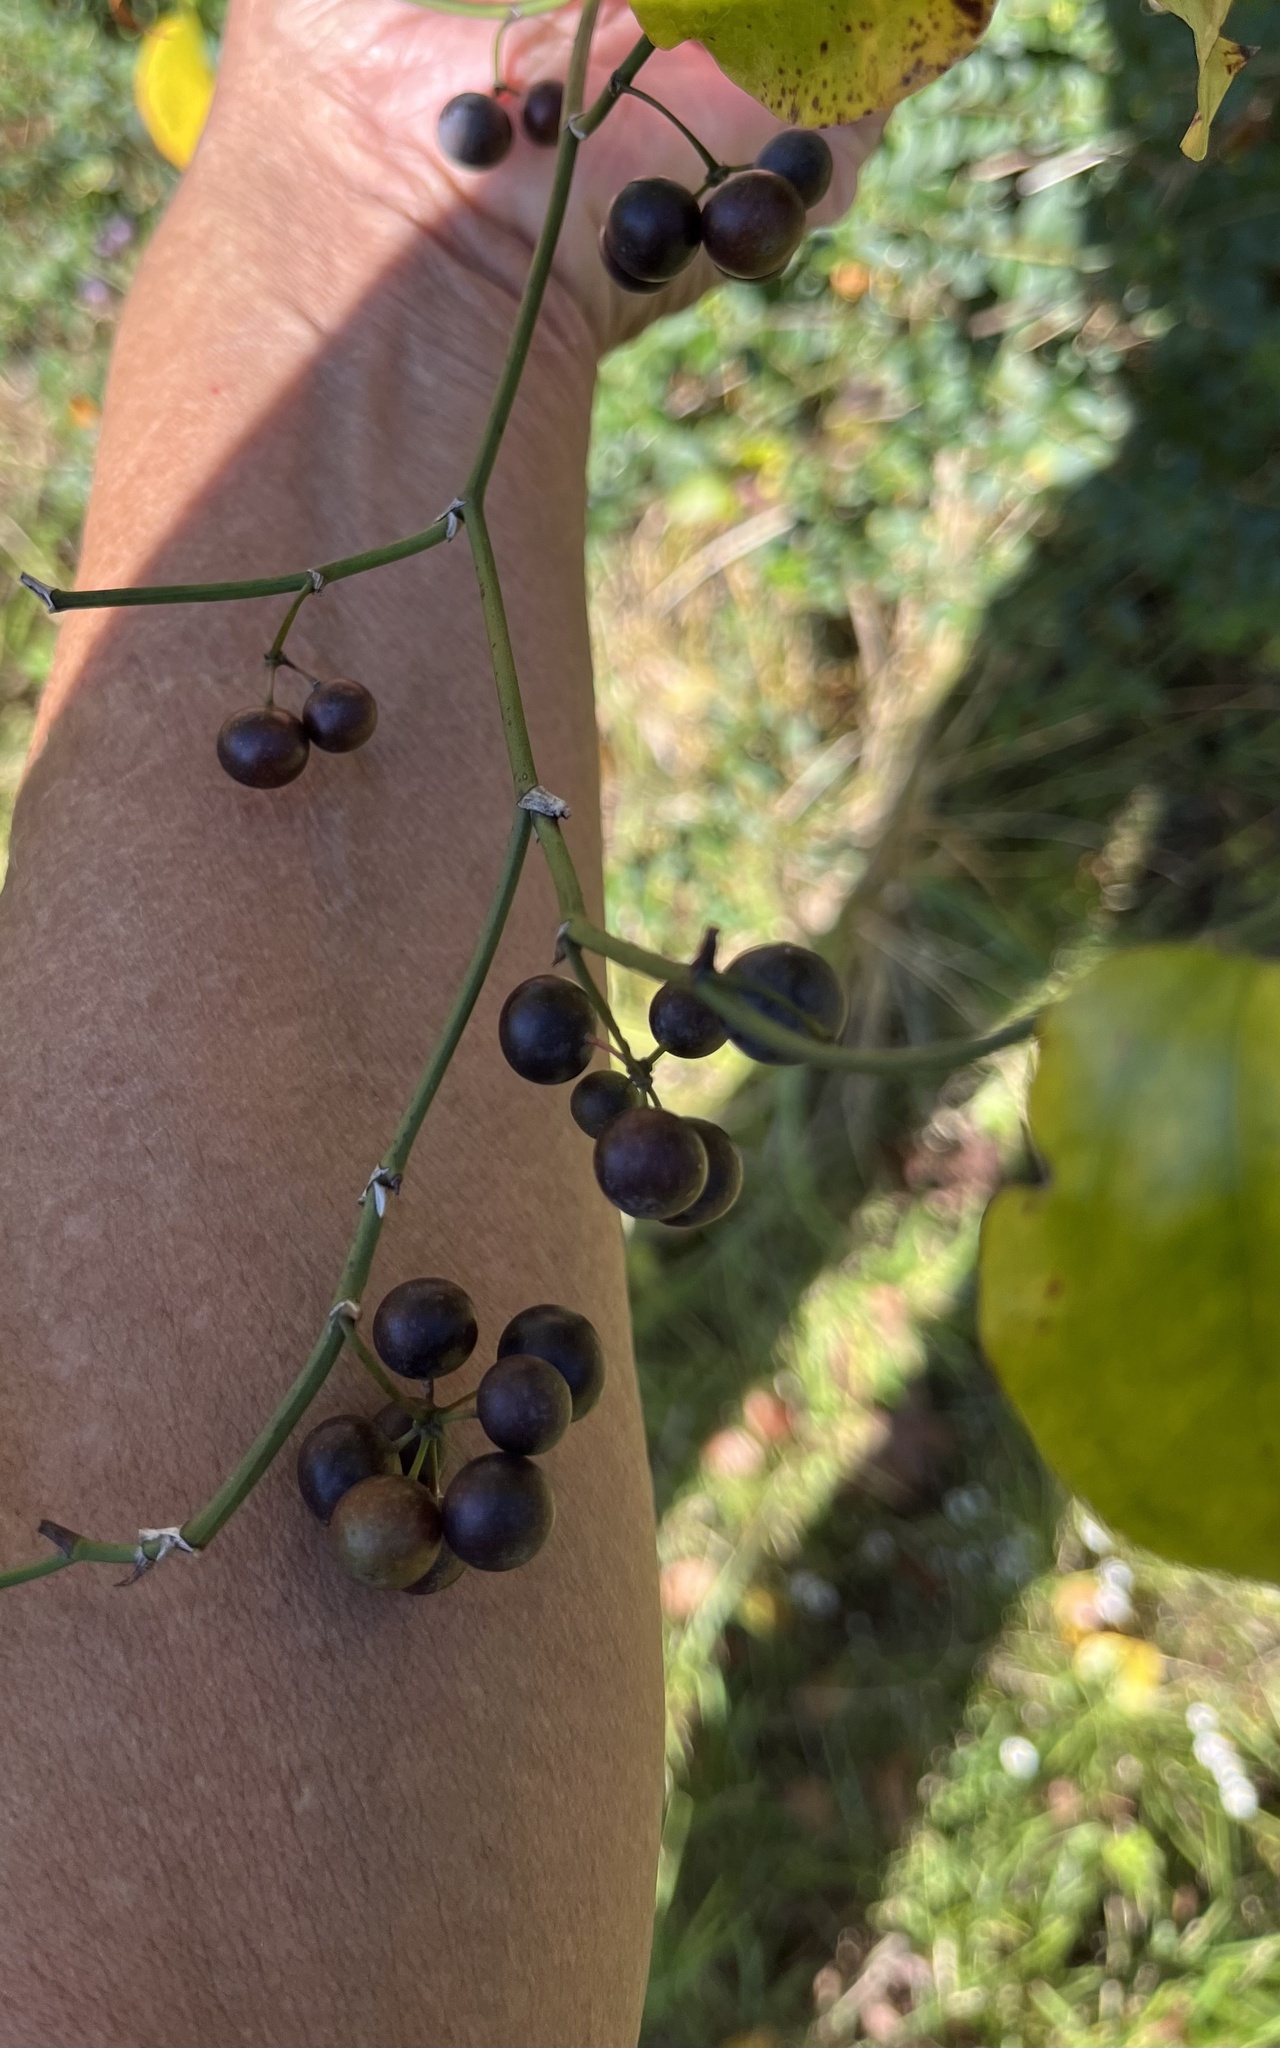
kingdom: Plantae
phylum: Tracheophyta
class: Liliopsida
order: Liliales
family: Smilacaceae
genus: Smilax
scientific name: Smilax rotundifolia
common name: Bullbriar
